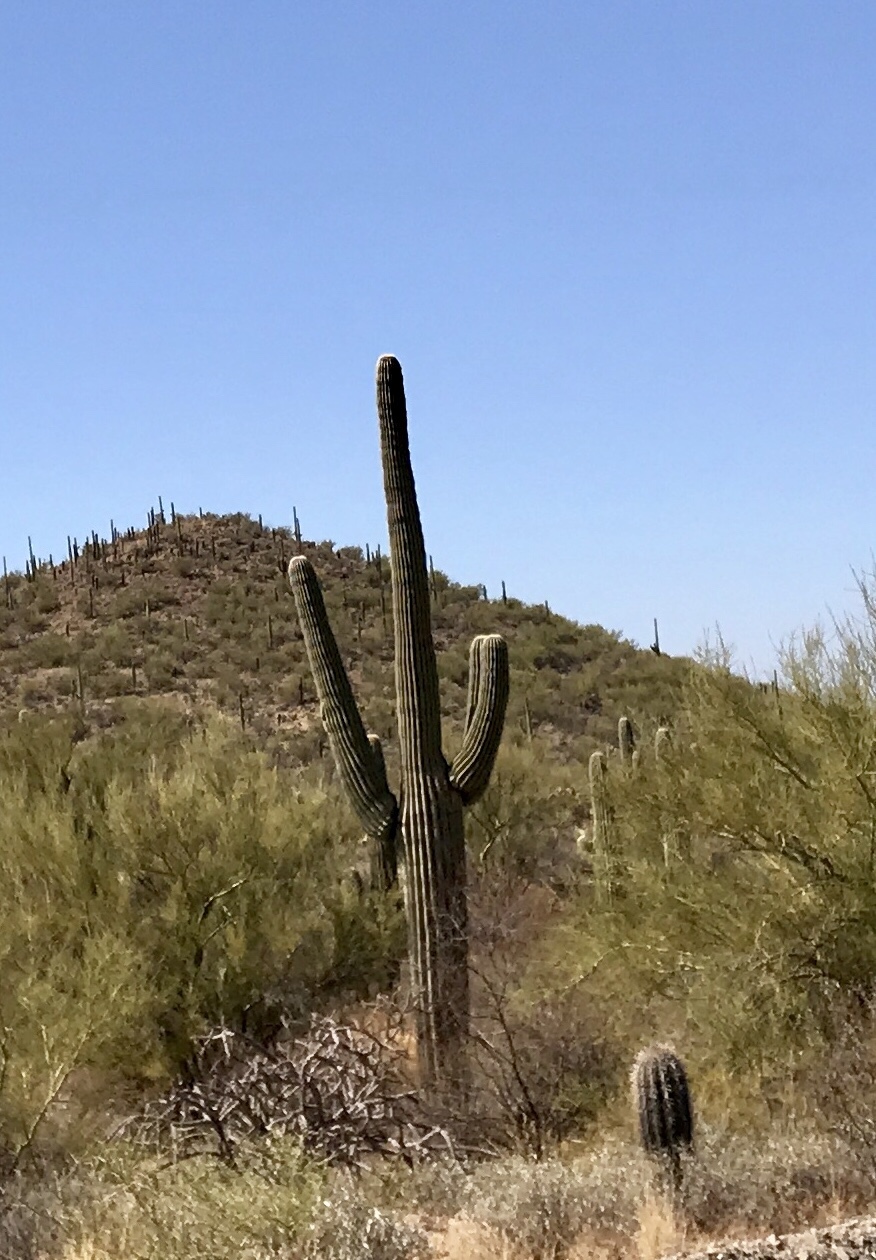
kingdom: Plantae
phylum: Tracheophyta
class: Magnoliopsida
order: Caryophyllales
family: Cactaceae
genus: Carnegiea
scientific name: Carnegiea gigantea
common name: Saguaro
